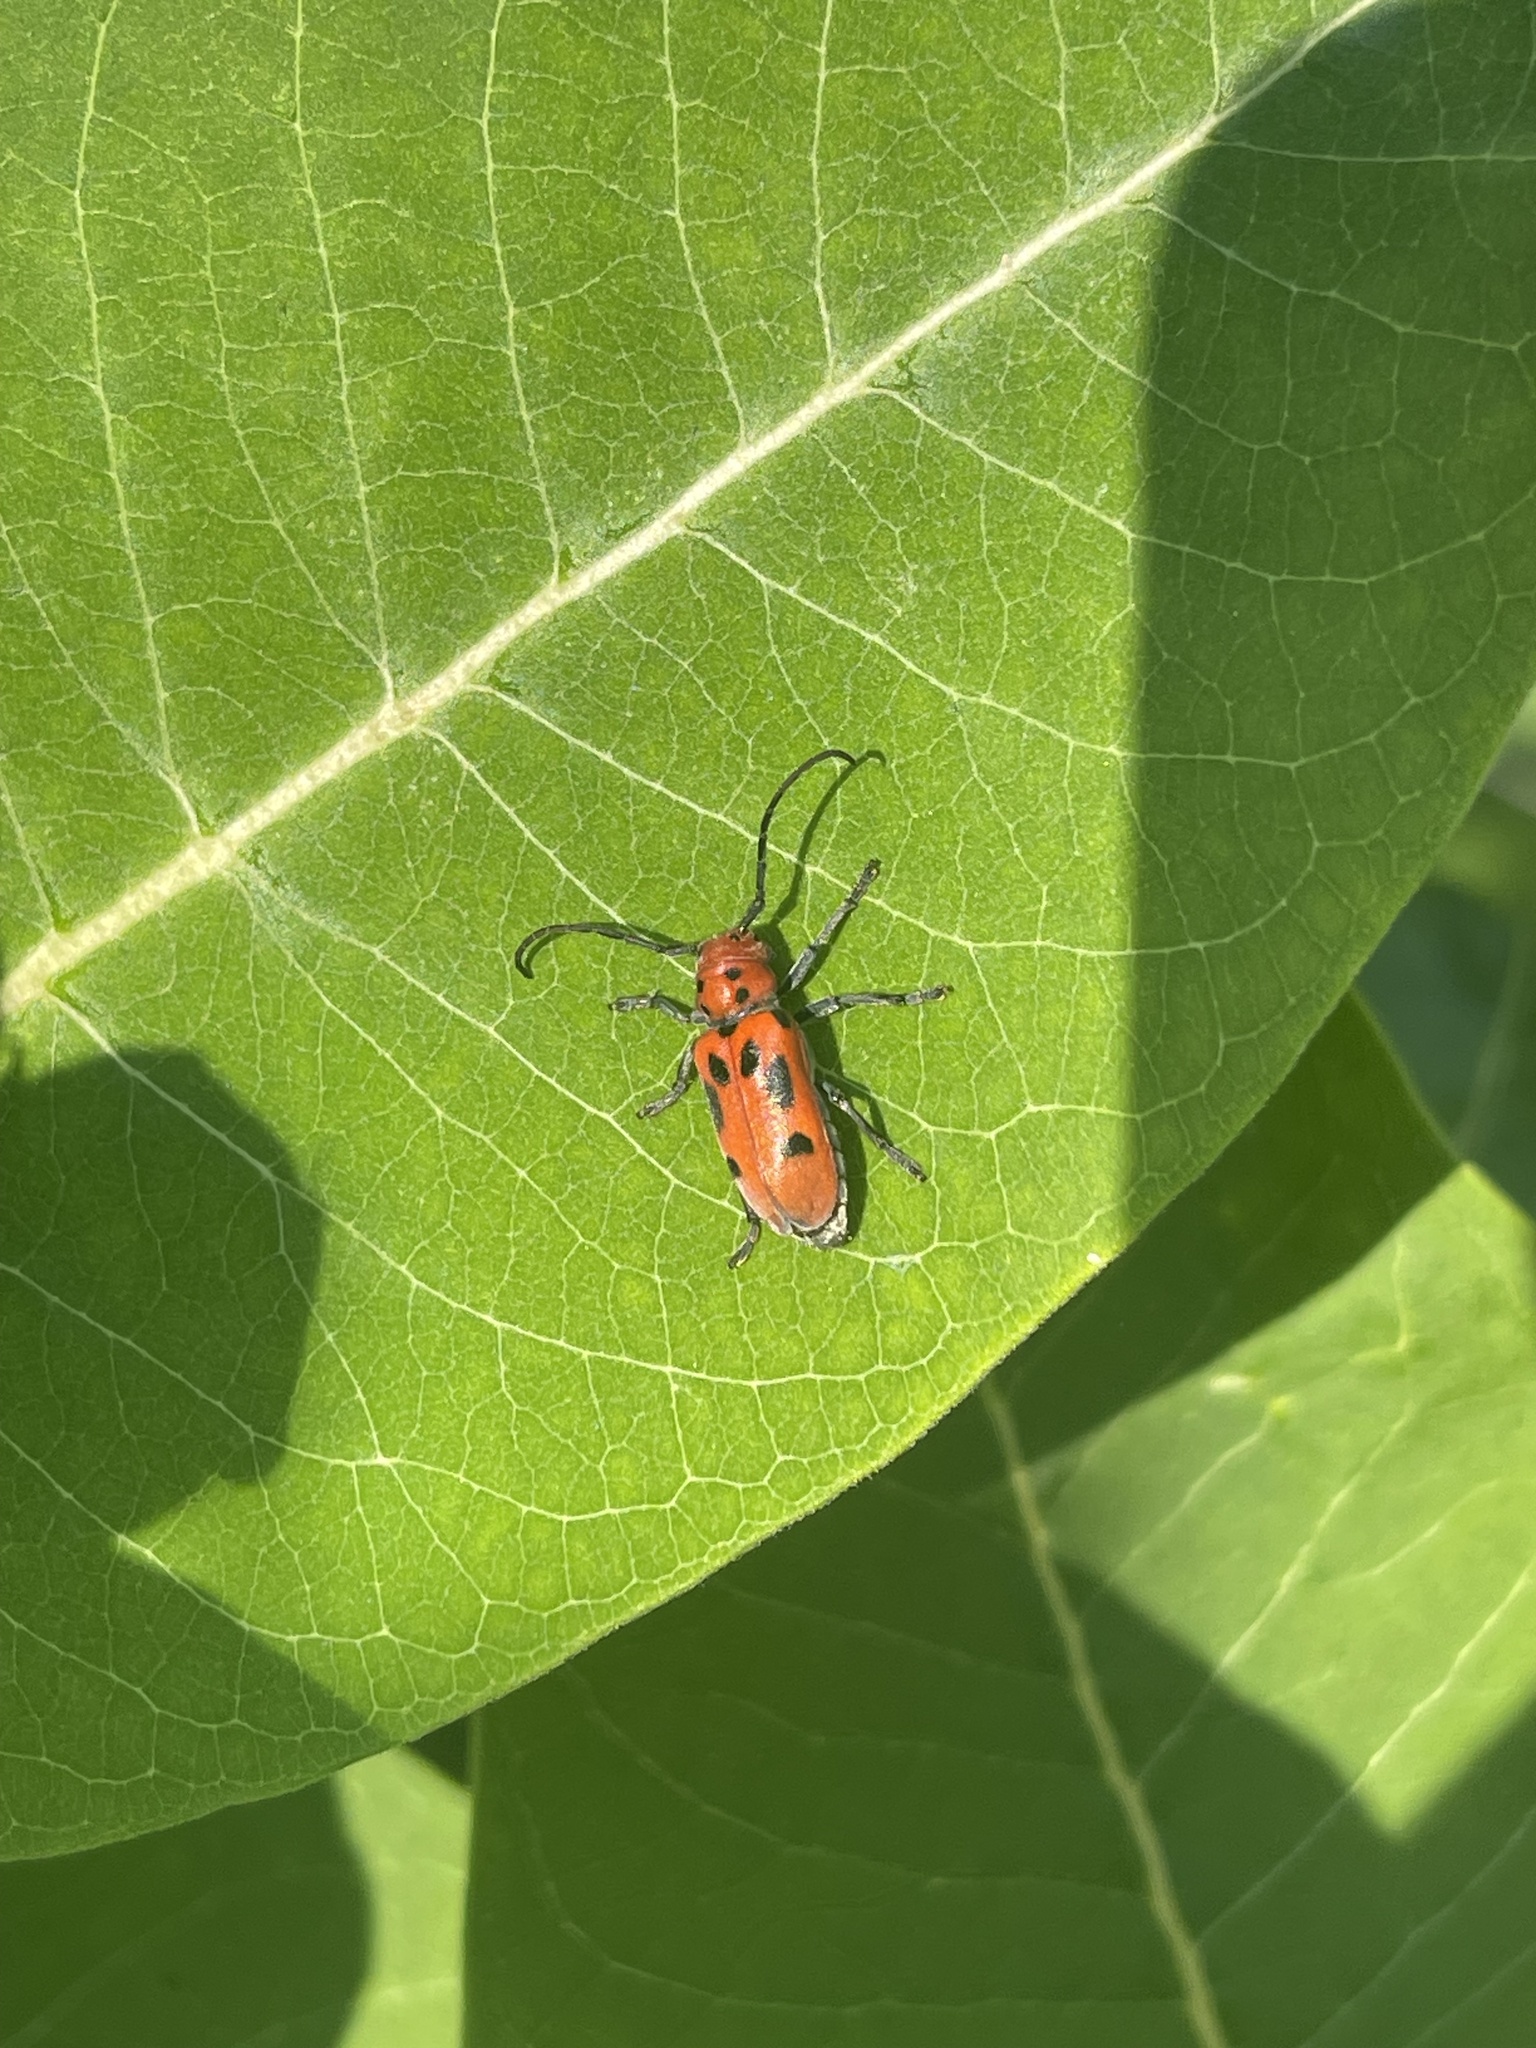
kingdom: Animalia
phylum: Arthropoda
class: Insecta
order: Coleoptera
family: Cerambycidae
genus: Tetraopes
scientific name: Tetraopes tetrophthalmus
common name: Red milkweed beetle
